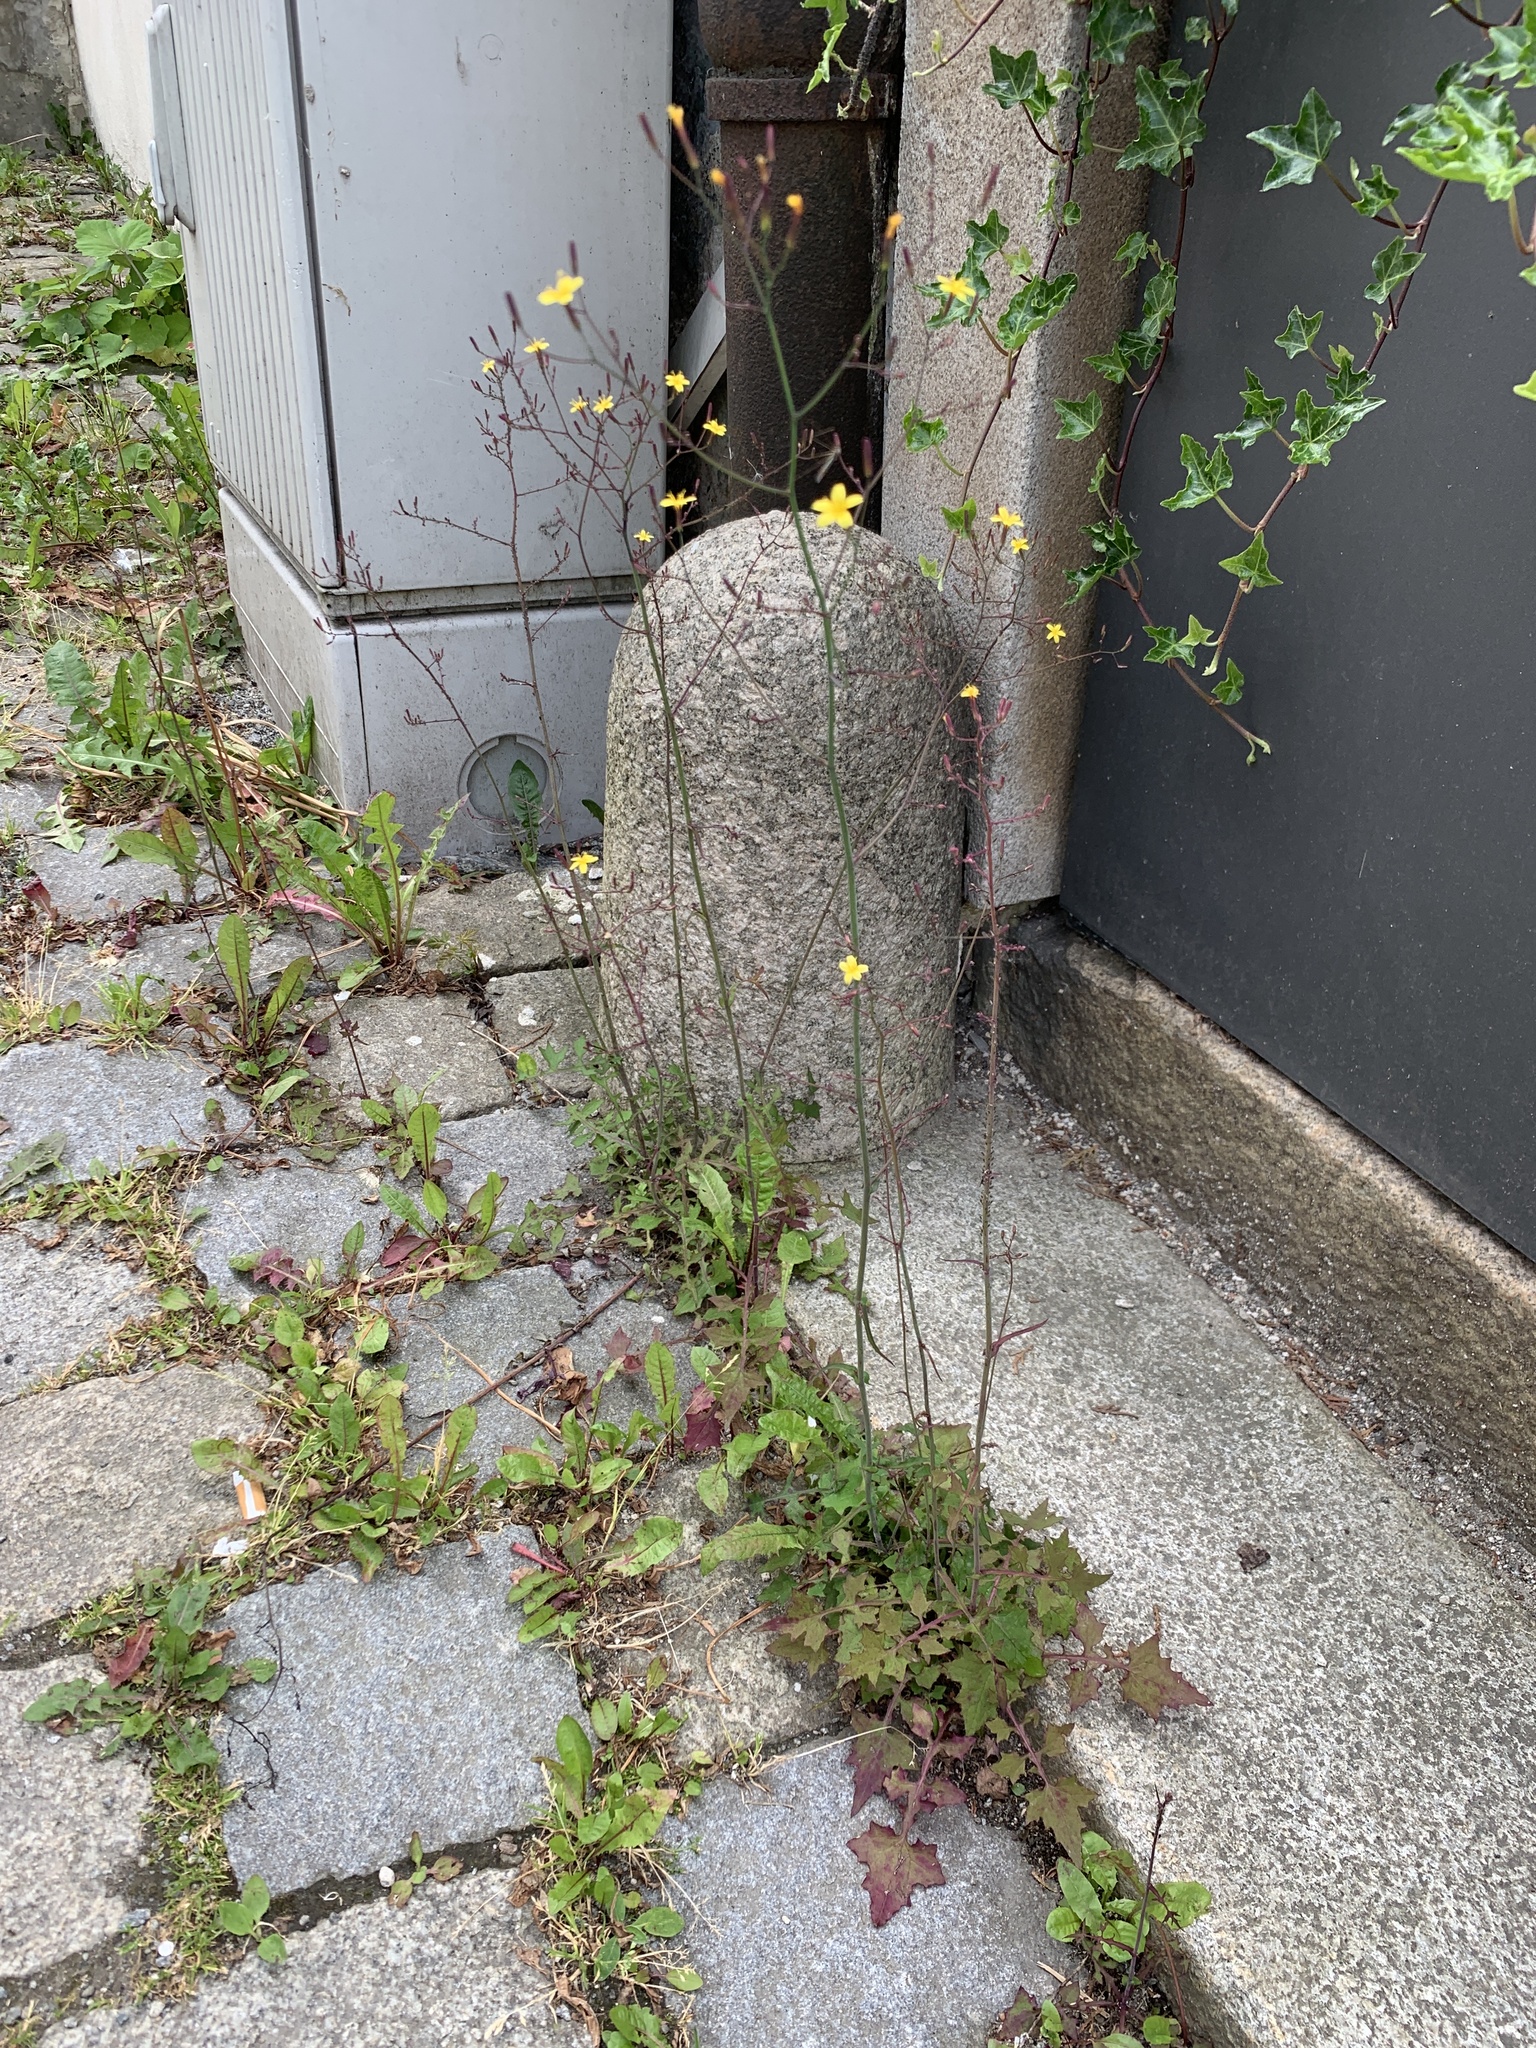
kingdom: Plantae
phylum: Tracheophyta
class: Magnoliopsida
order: Asterales
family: Asteraceae
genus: Mycelis
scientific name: Mycelis muralis
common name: Wall lettuce
